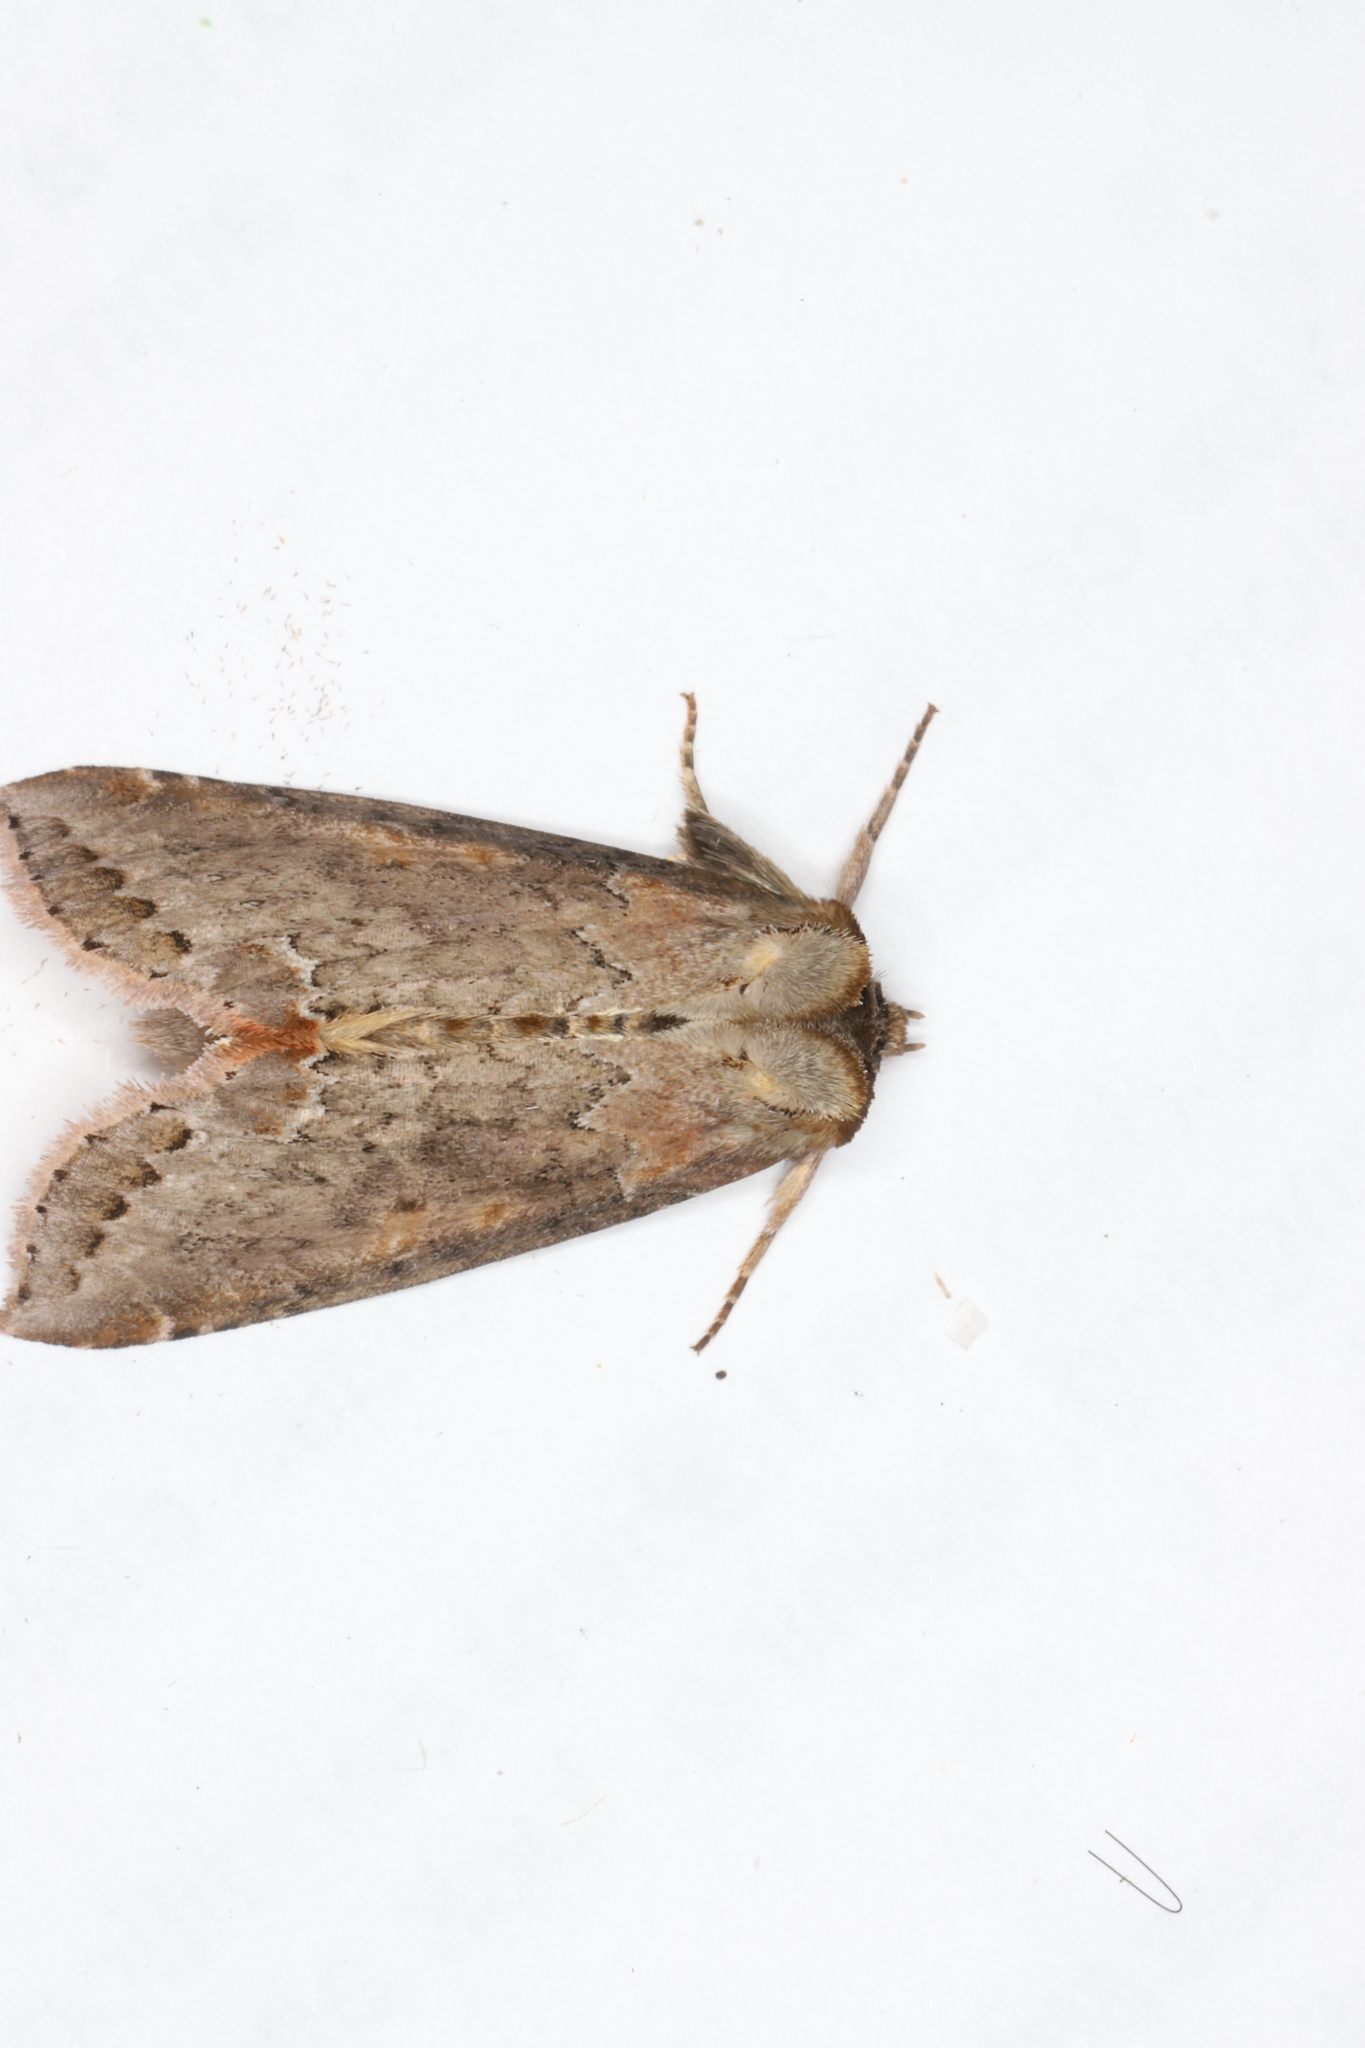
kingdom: Animalia
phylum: Arthropoda
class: Insecta
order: Lepidoptera
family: Drepanidae
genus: Pseudothyatira
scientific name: Pseudothyatira cymatophoroides
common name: Tufted thyatirid moth
